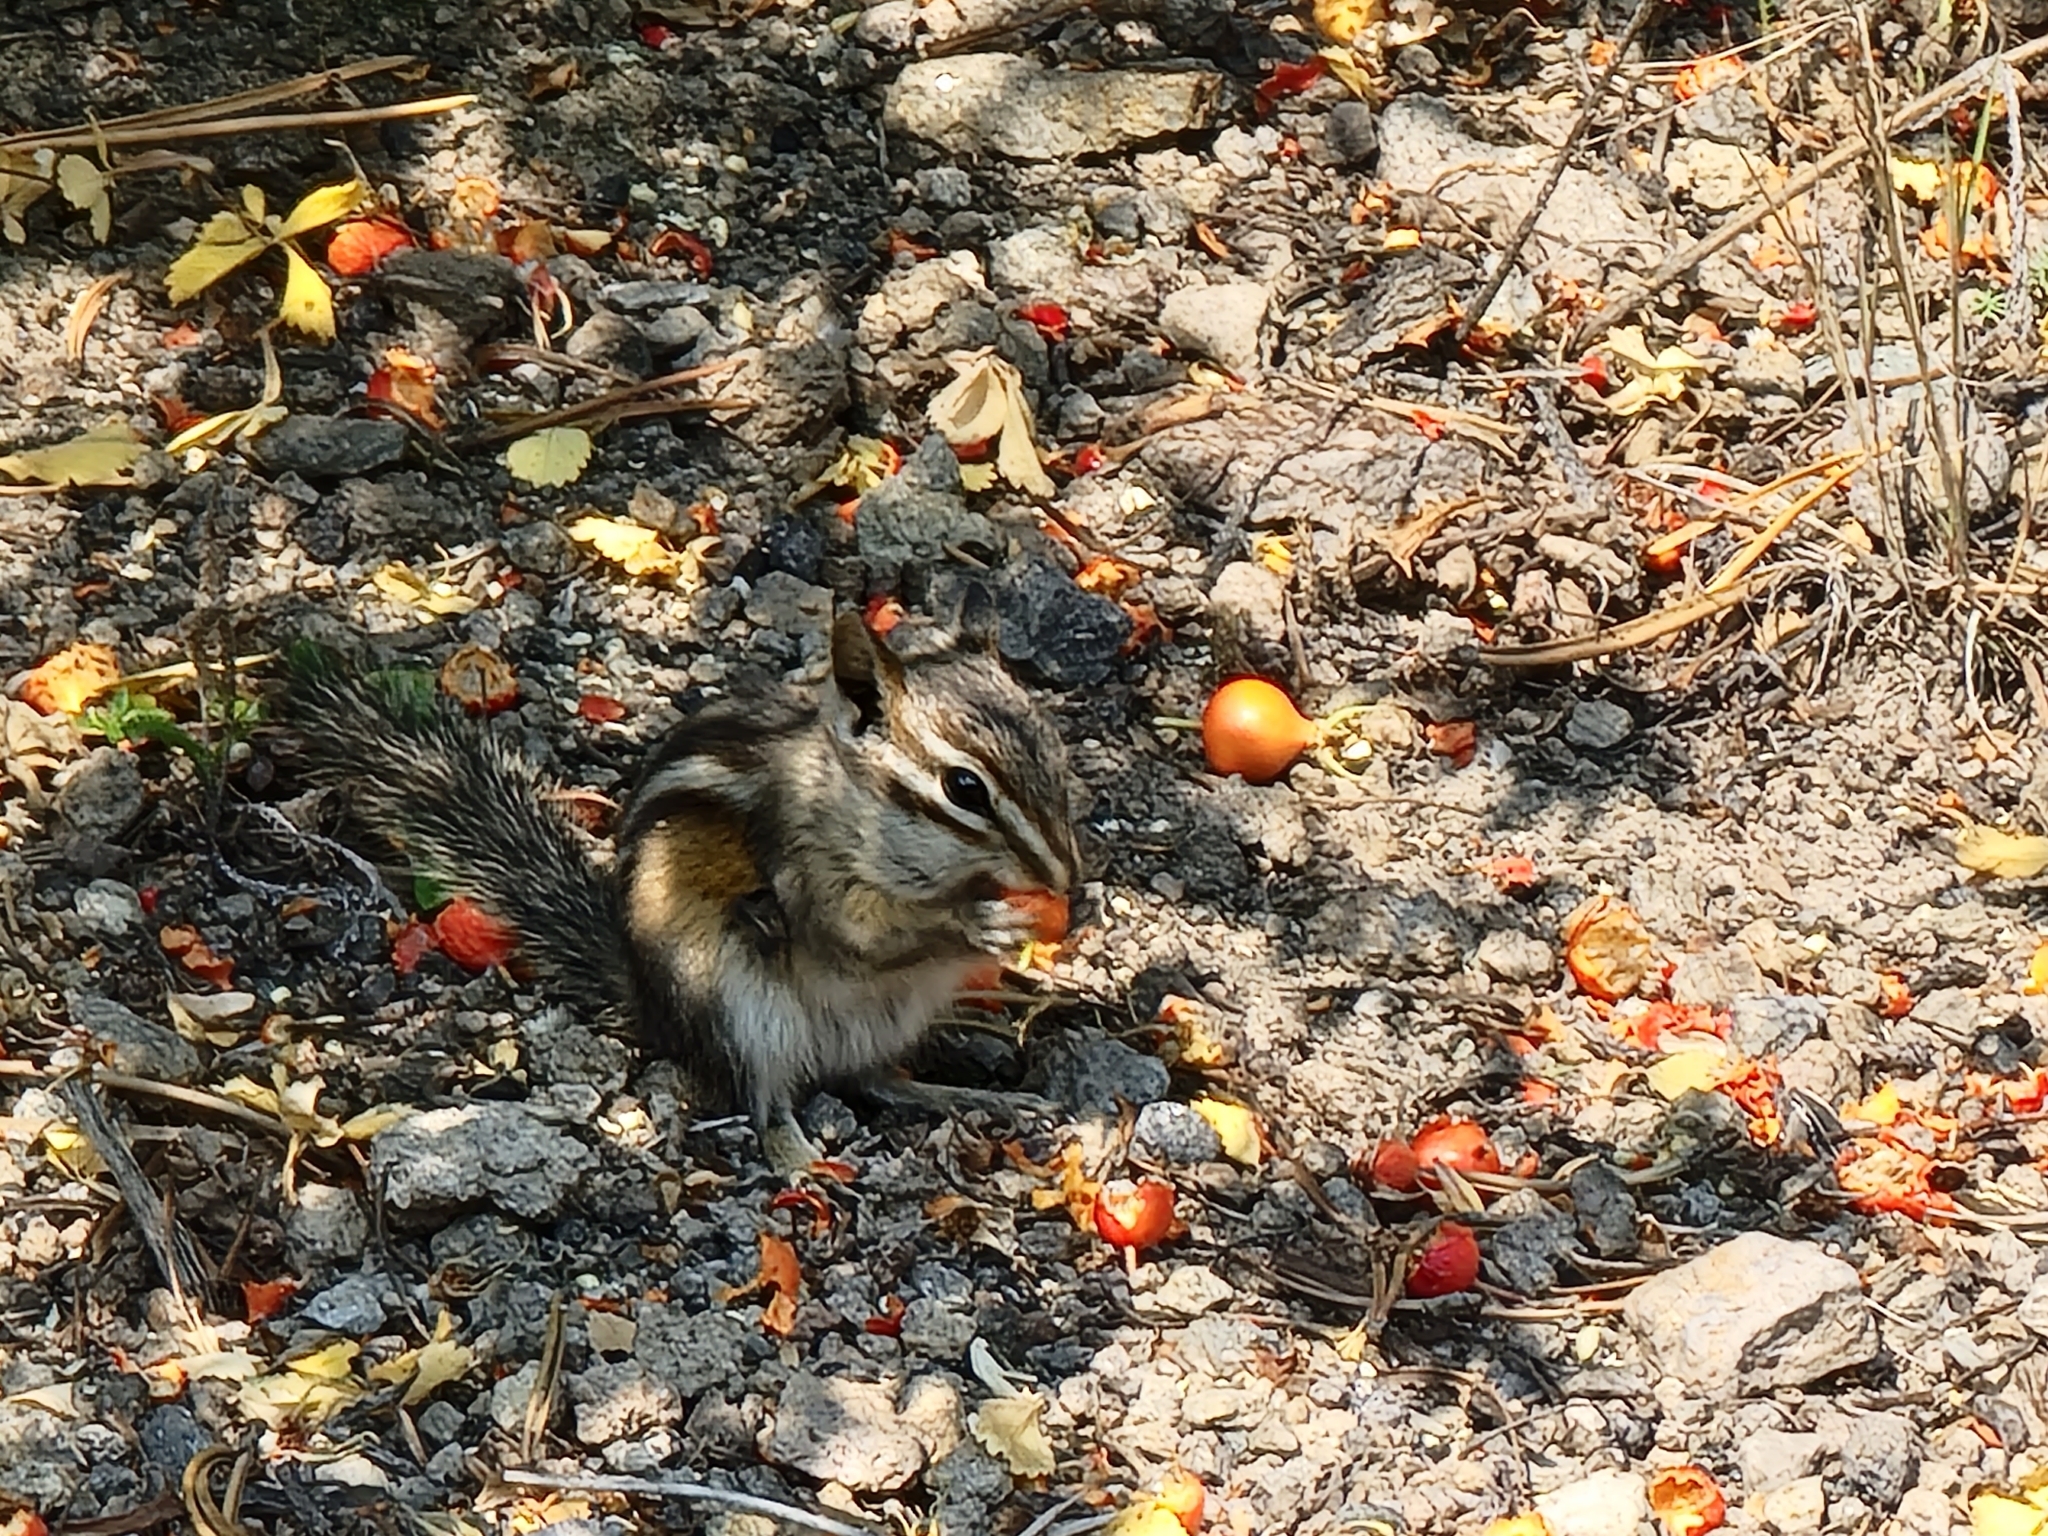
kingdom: Animalia
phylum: Chordata
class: Mammalia
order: Rodentia
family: Sciuridae
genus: Tamias
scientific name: Tamias minimus
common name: Least chipmunk
